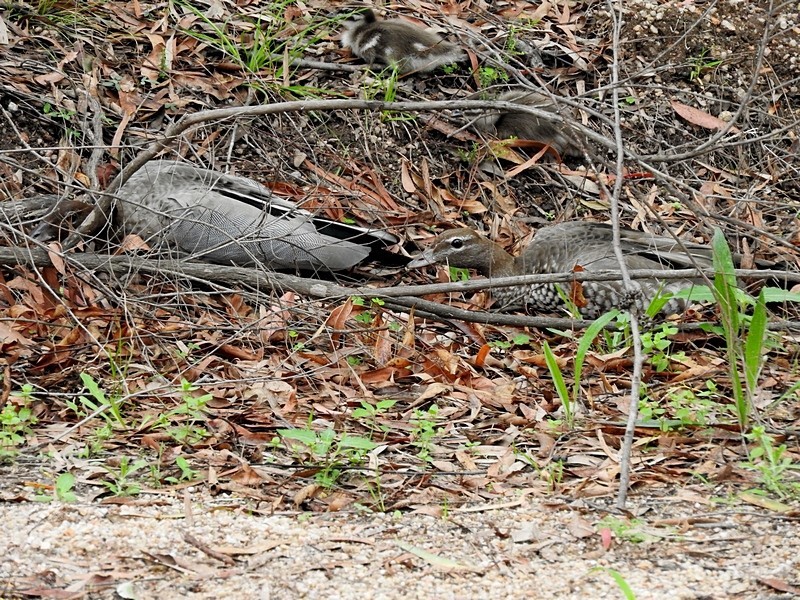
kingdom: Animalia
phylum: Chordata
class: Aves
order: Anseriformes
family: Anatidae
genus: Chenonetta
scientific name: Chenonetta jubata
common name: Maned duck
